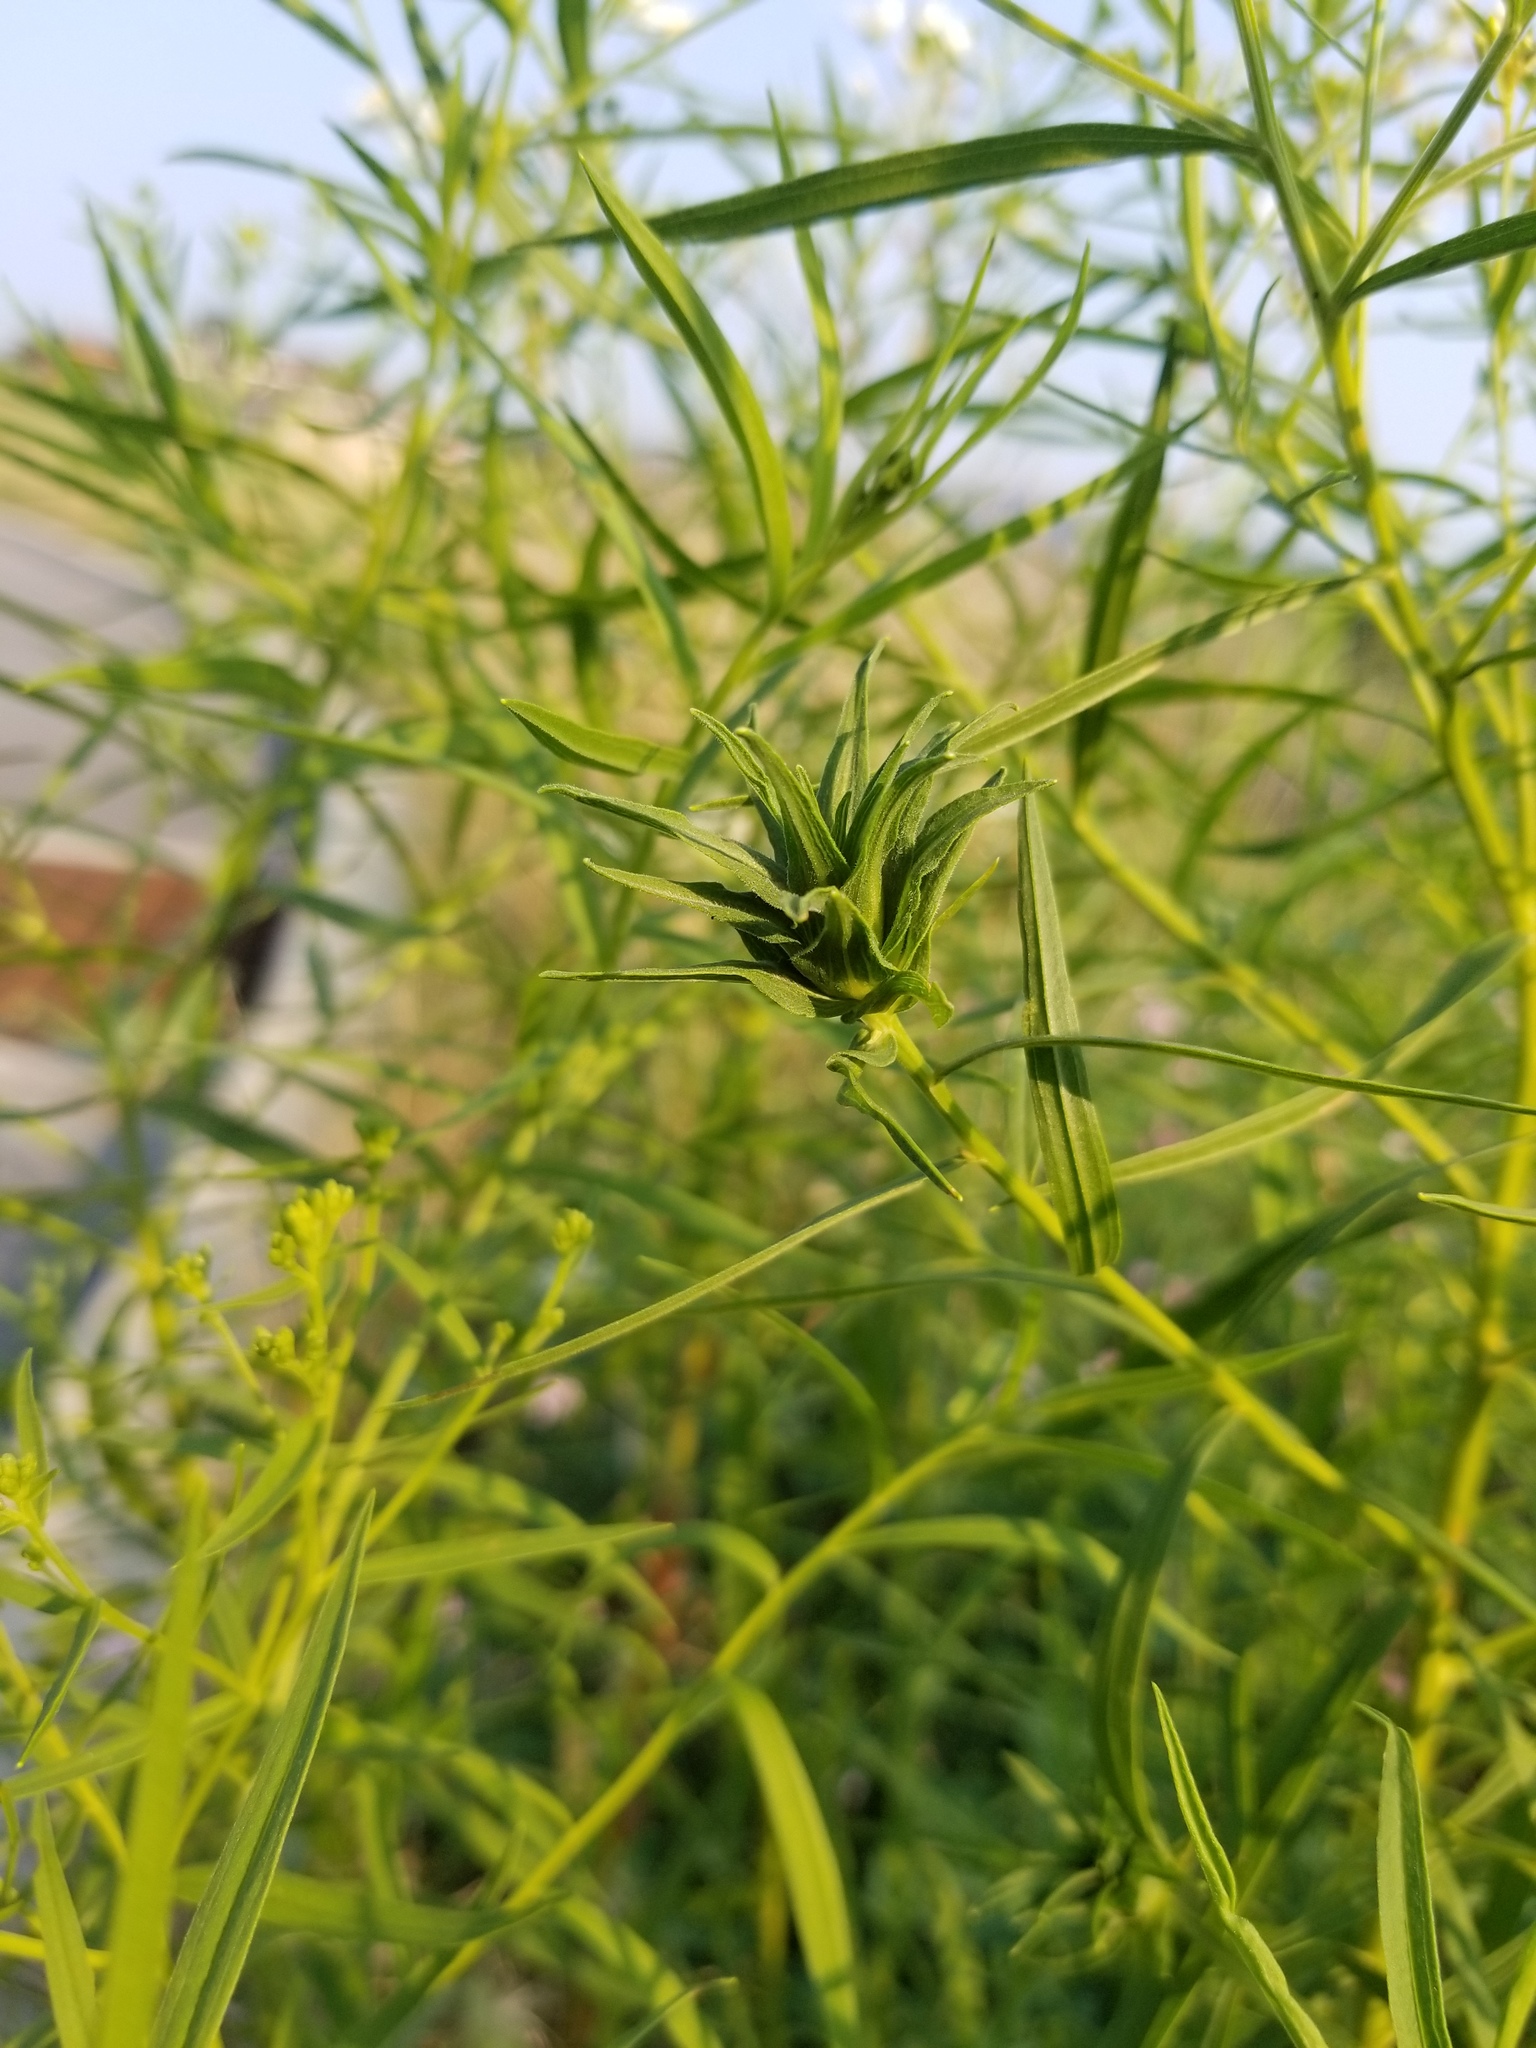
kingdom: Animalia
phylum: Arthropoda
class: Insecta
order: Diptera
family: Cecidomyiidae
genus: Asphondylia
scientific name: Asphondylia pseudorosa
